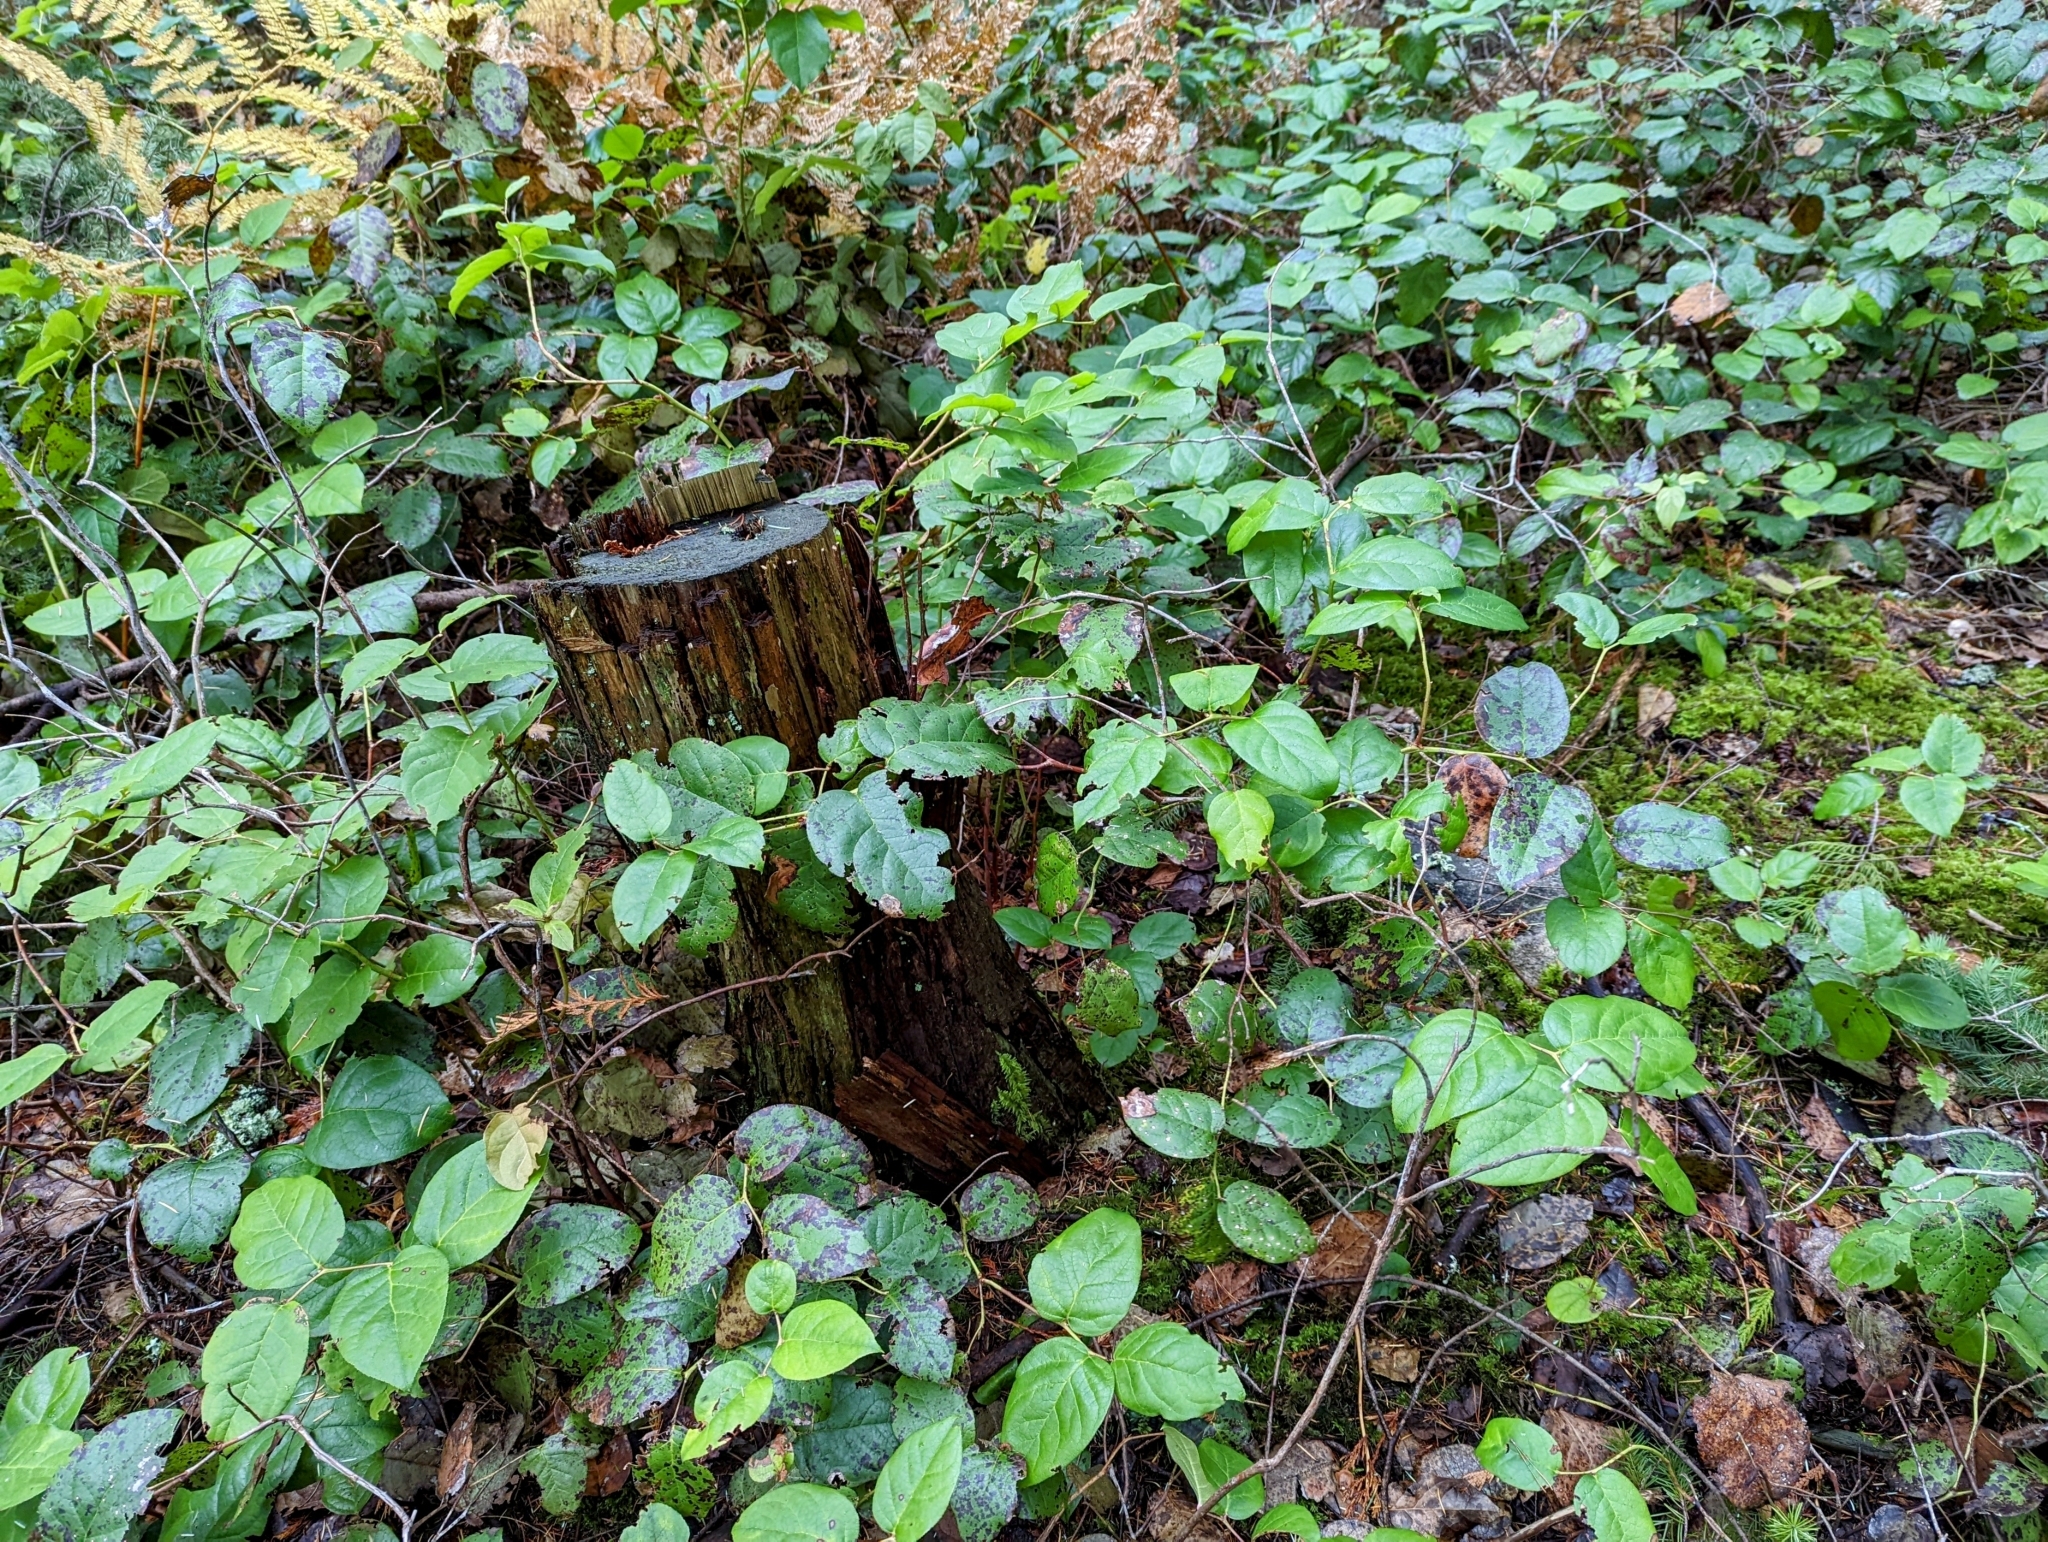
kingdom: Plantae
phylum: Tracheophyta
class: Magnoliopsida
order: Ericales
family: Ericaceae
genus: Gaultheria
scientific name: Gaultheria shallon
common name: Shallon
